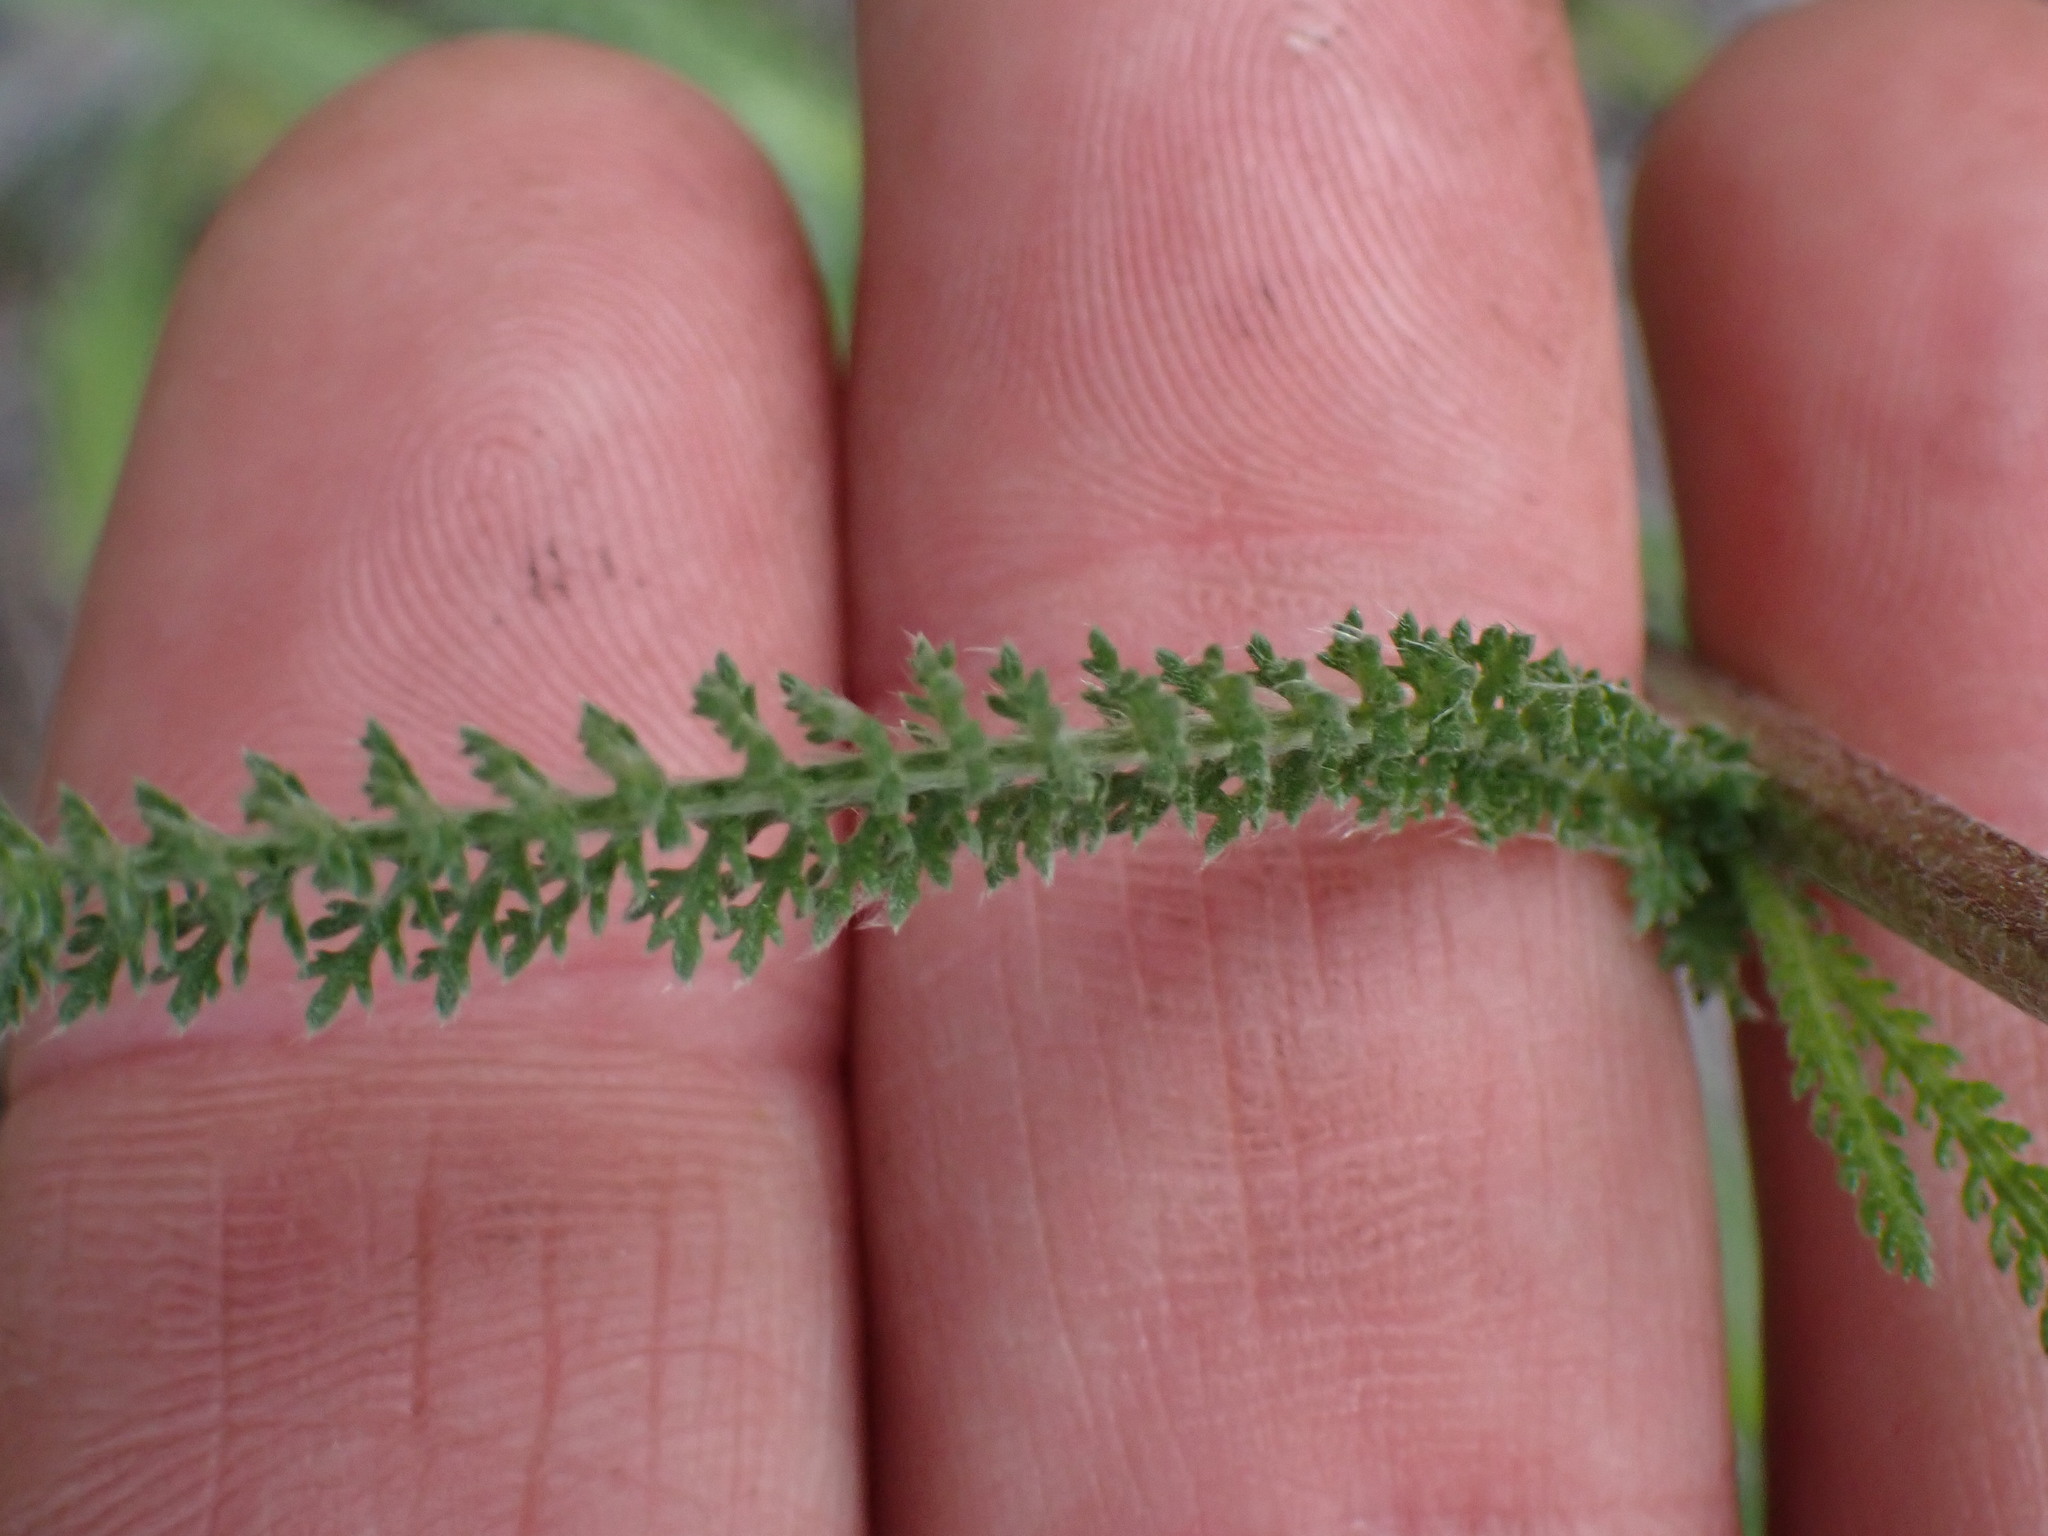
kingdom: Plantae
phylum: Tracheophyta
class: Magnoliopsida
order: Asterales
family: Asteraceae
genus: Achillea
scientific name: Achillea millefolium
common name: Yarrow
